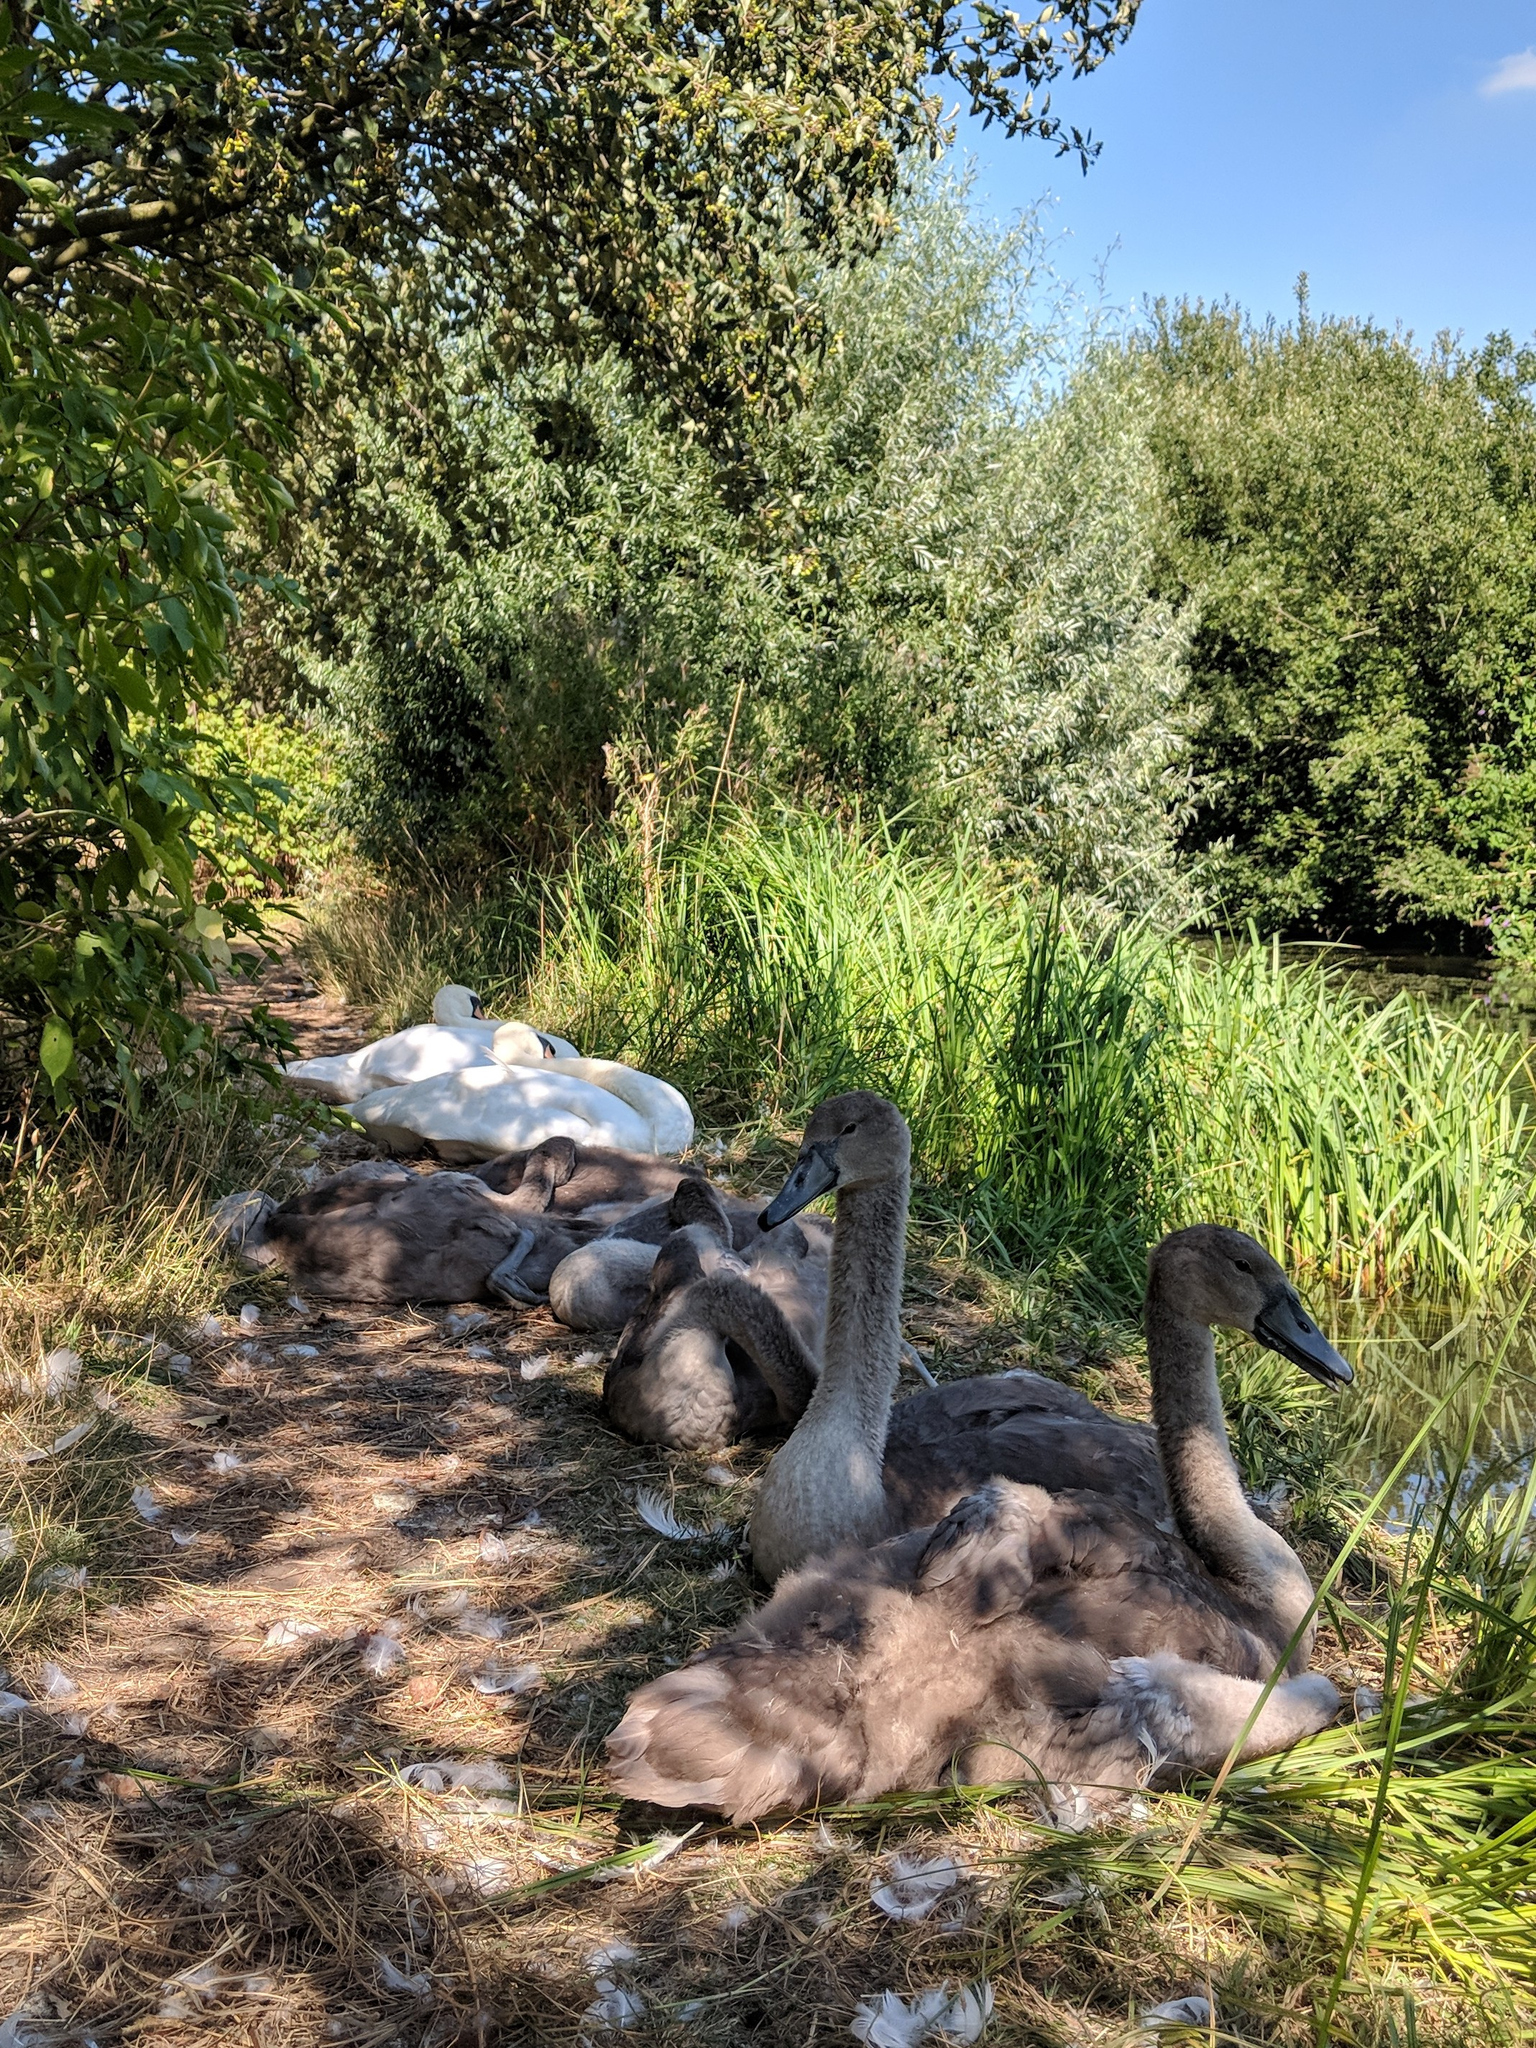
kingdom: Animalia
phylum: Chordata
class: Aves
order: Anseriformes
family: Anatidae
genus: Cygnus
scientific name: Cygnus olor
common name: Mute swan
